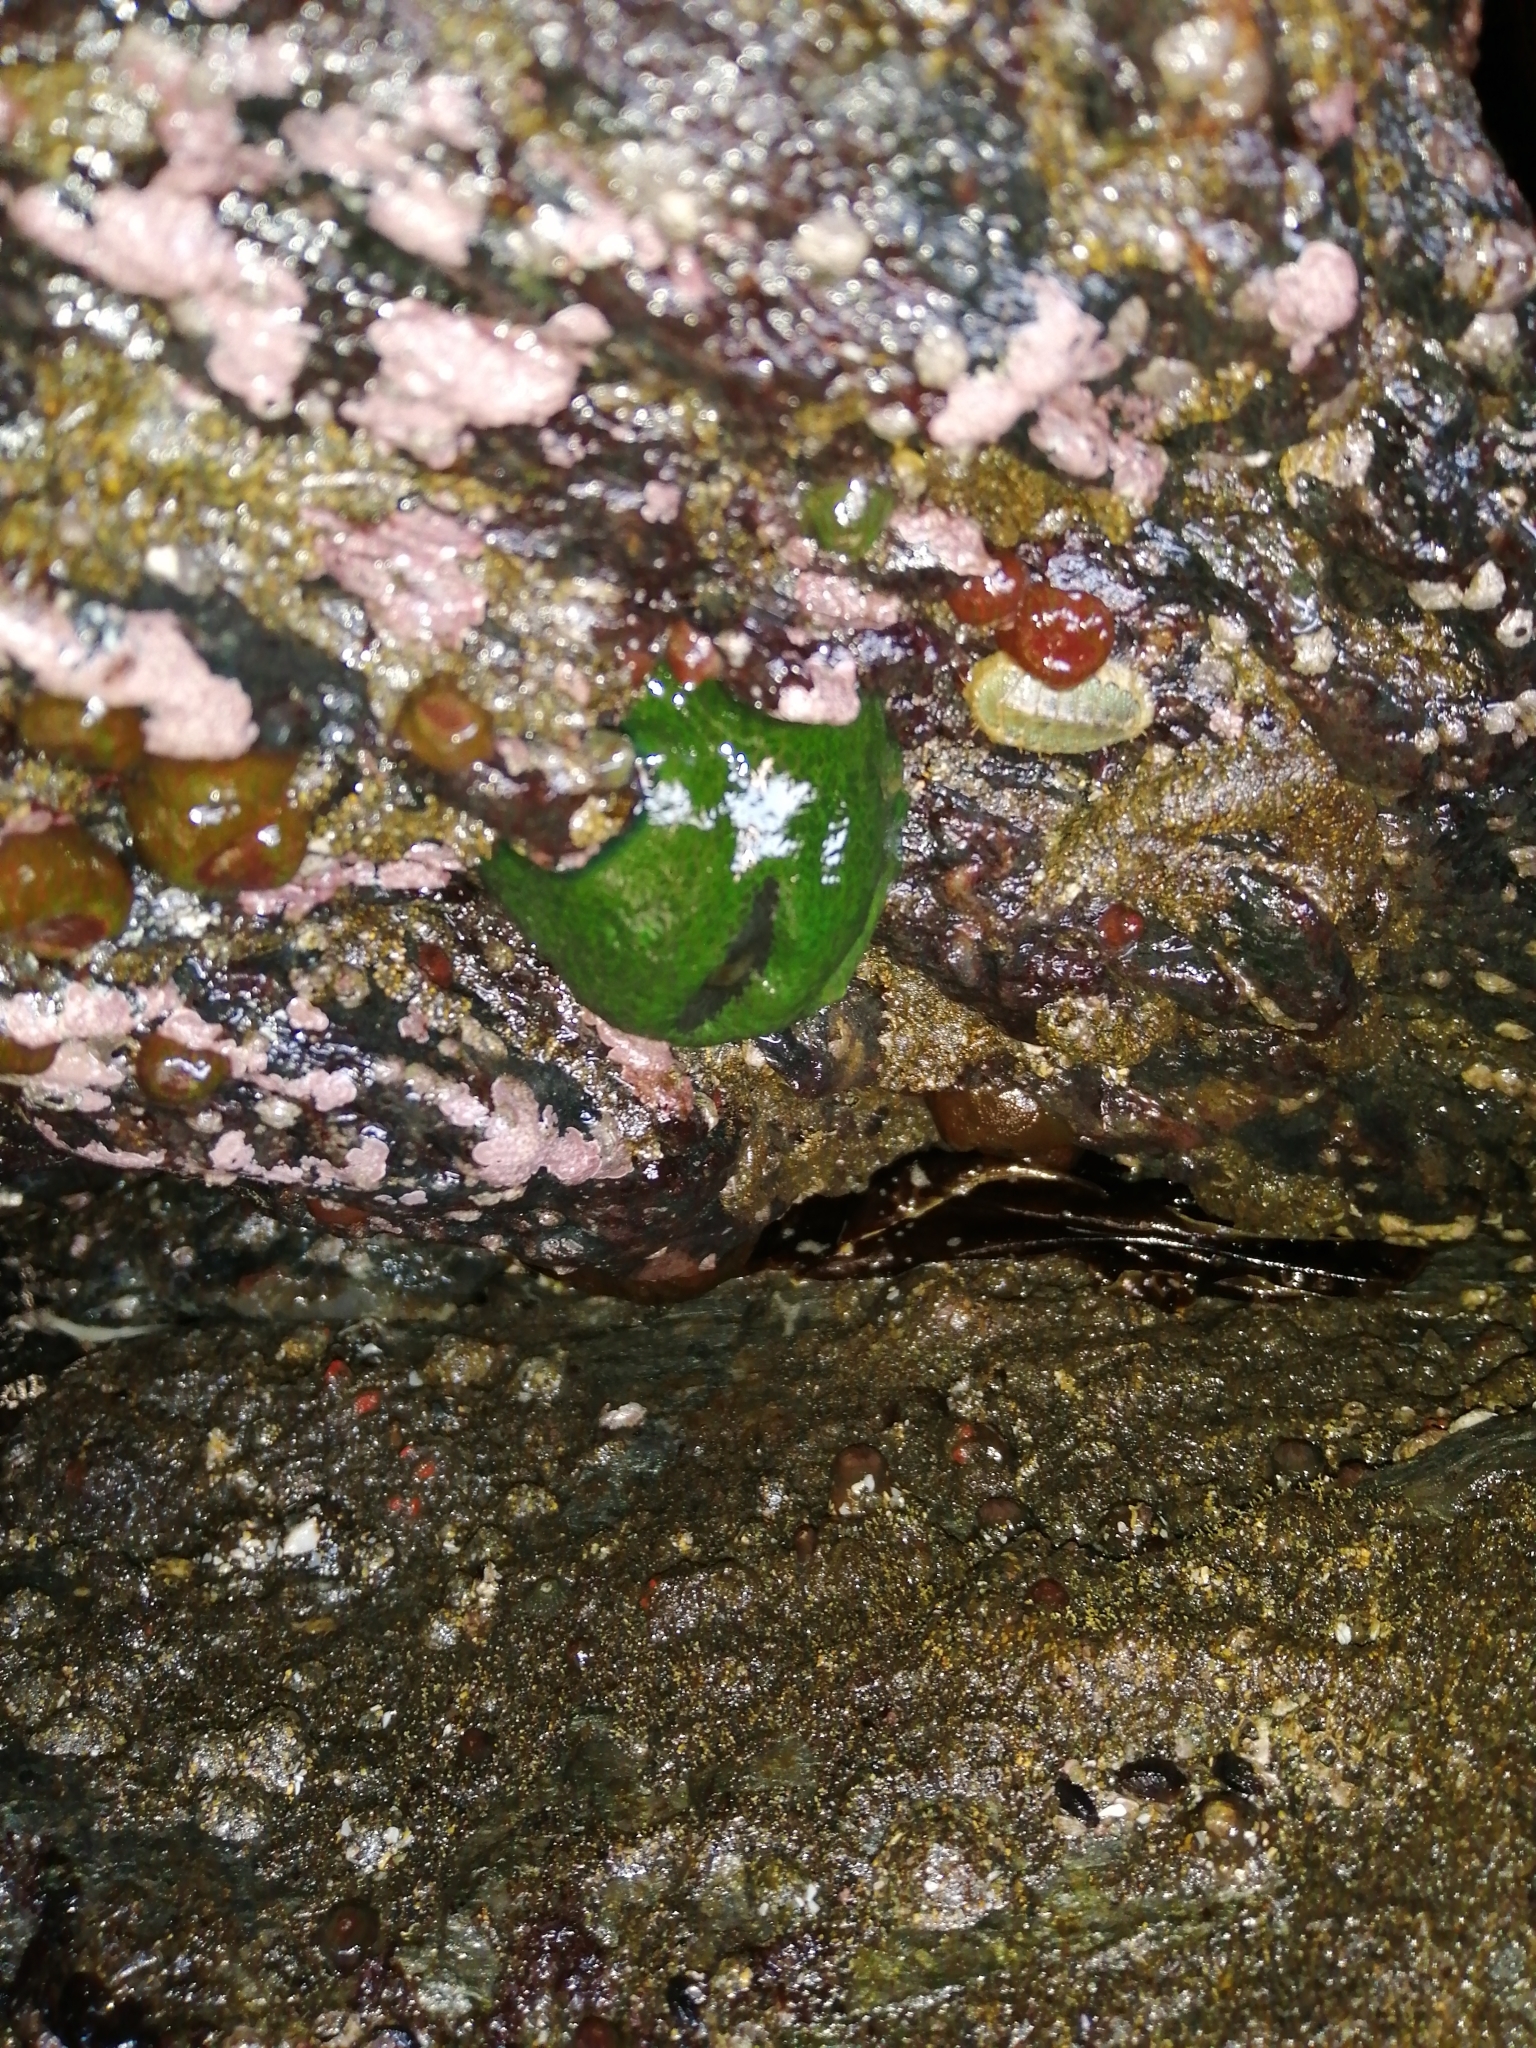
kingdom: Animalia
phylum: Cnidaria
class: Anthozoa
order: Actiniaria
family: Actiniidae
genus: Phymactis
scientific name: Phymactis papillosa
